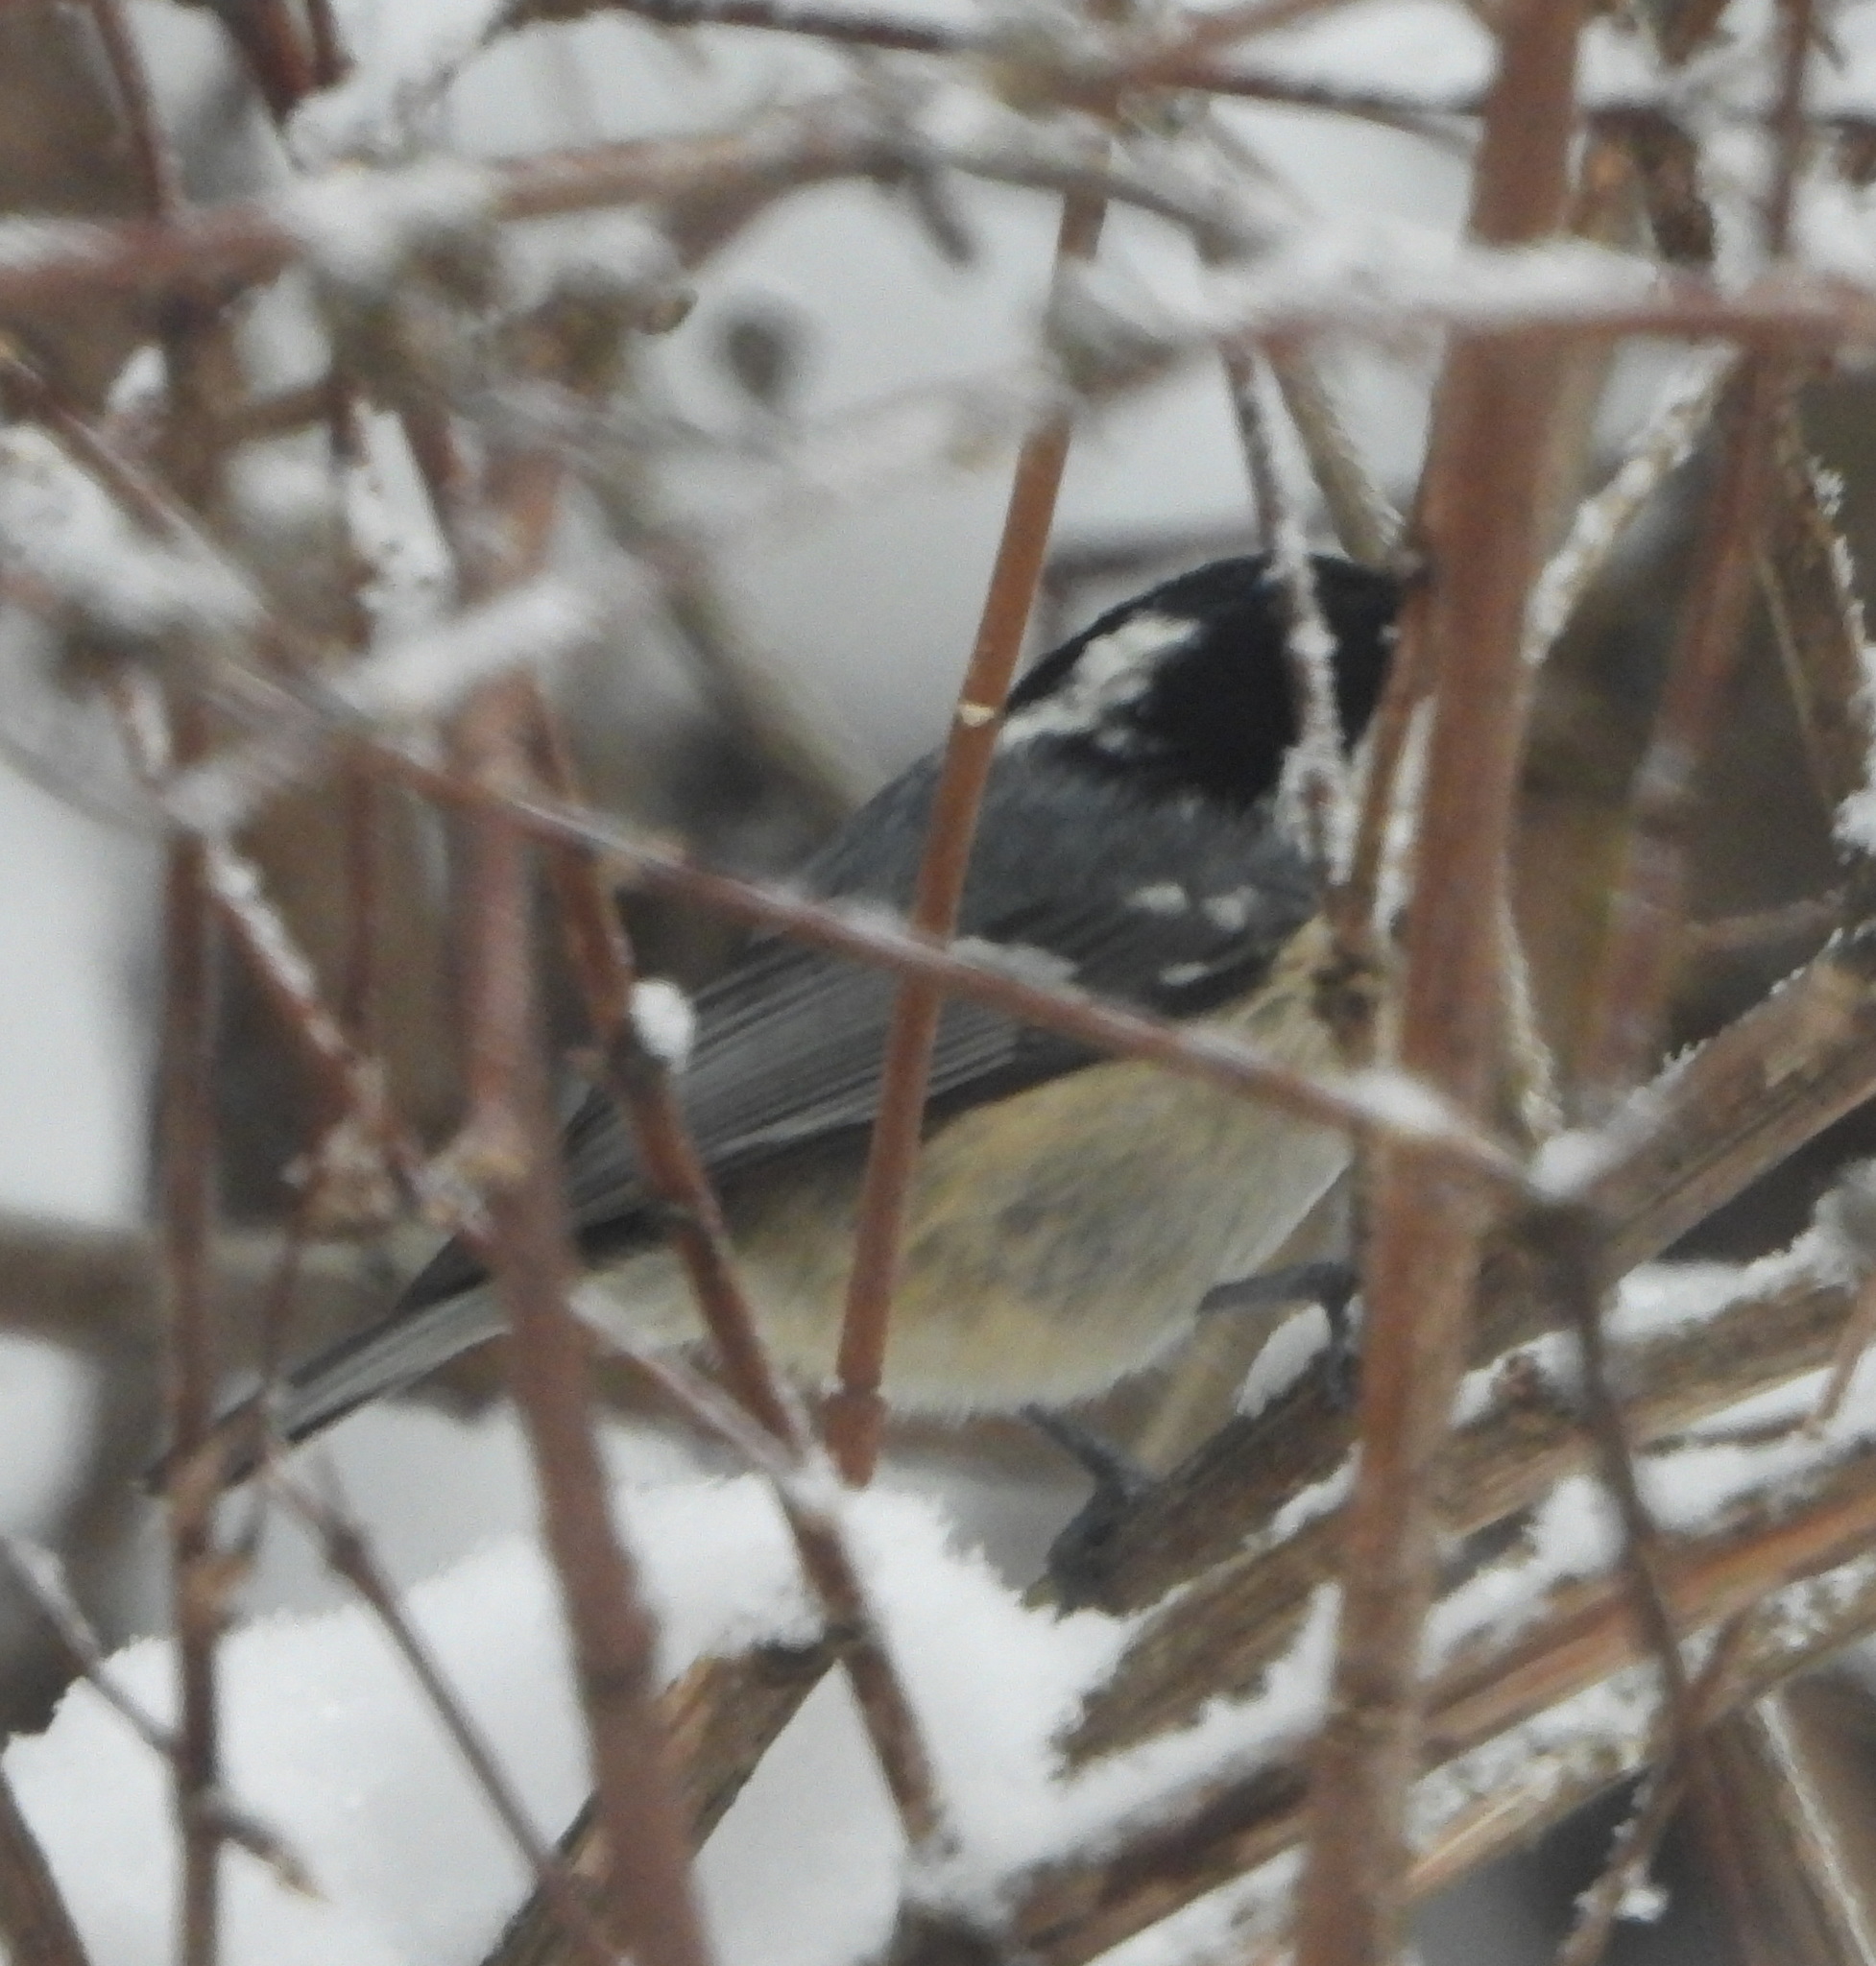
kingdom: Animalia
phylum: Chordata
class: Aves
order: Passeriformes
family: Paridae
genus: Periparus
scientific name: Periparus ater
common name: Coal tit
